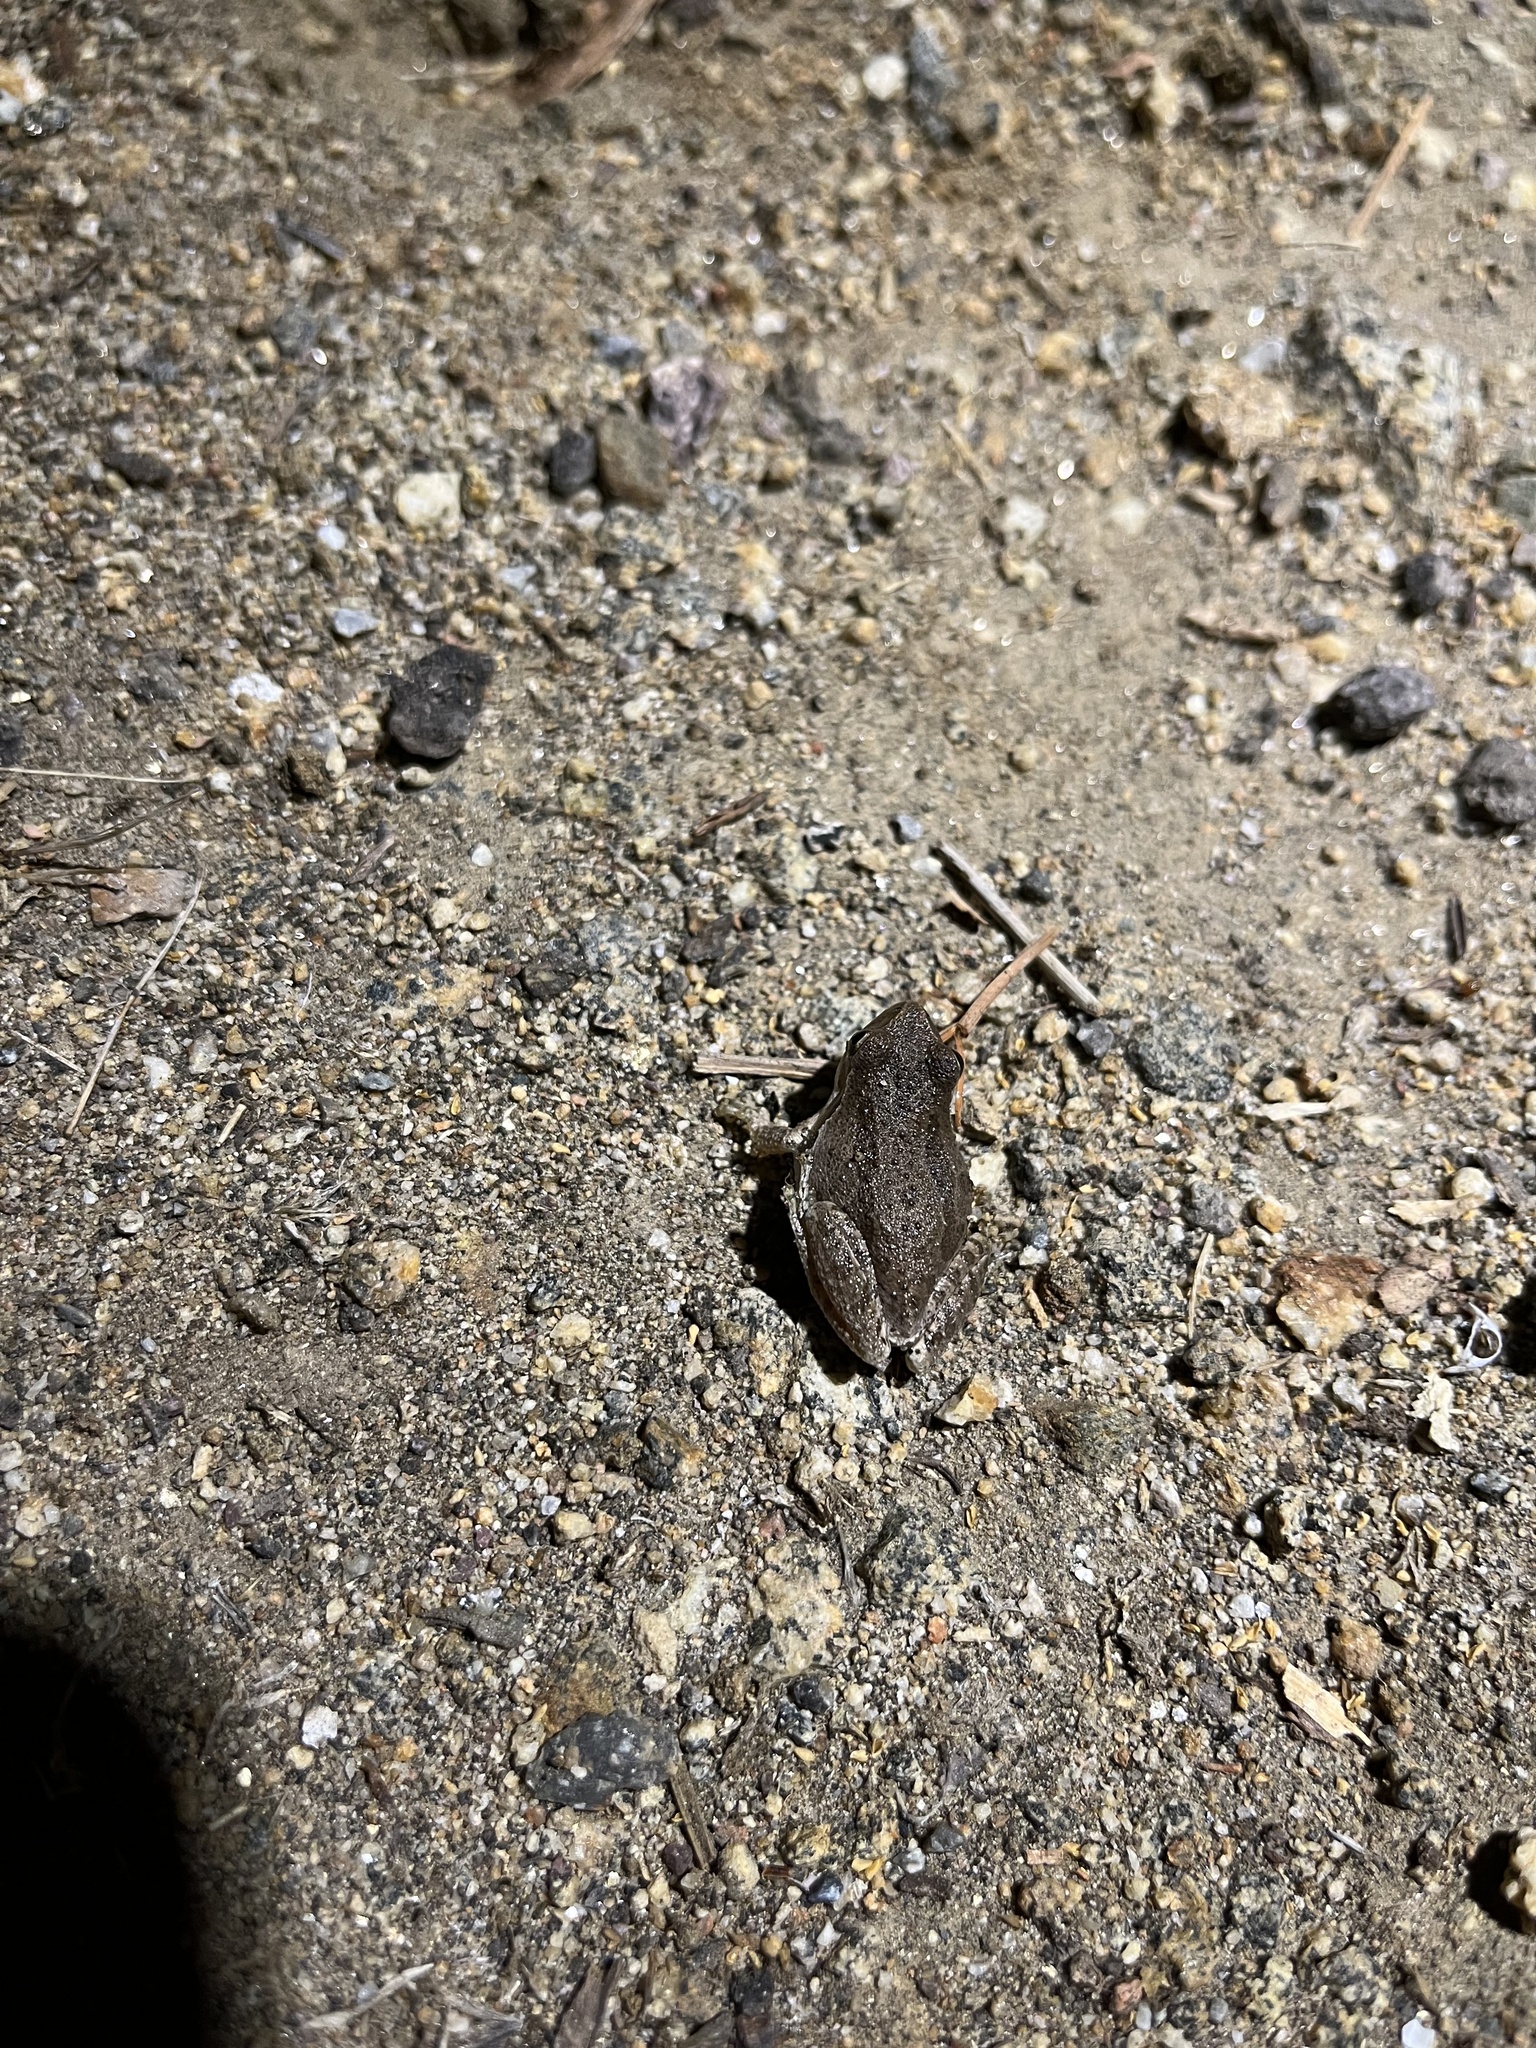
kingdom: Animalia
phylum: Chordata
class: Amphibia
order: Anura
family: Hylidae
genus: Pseudacris
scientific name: Pseudacris regilla
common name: Pacific chorus frog
